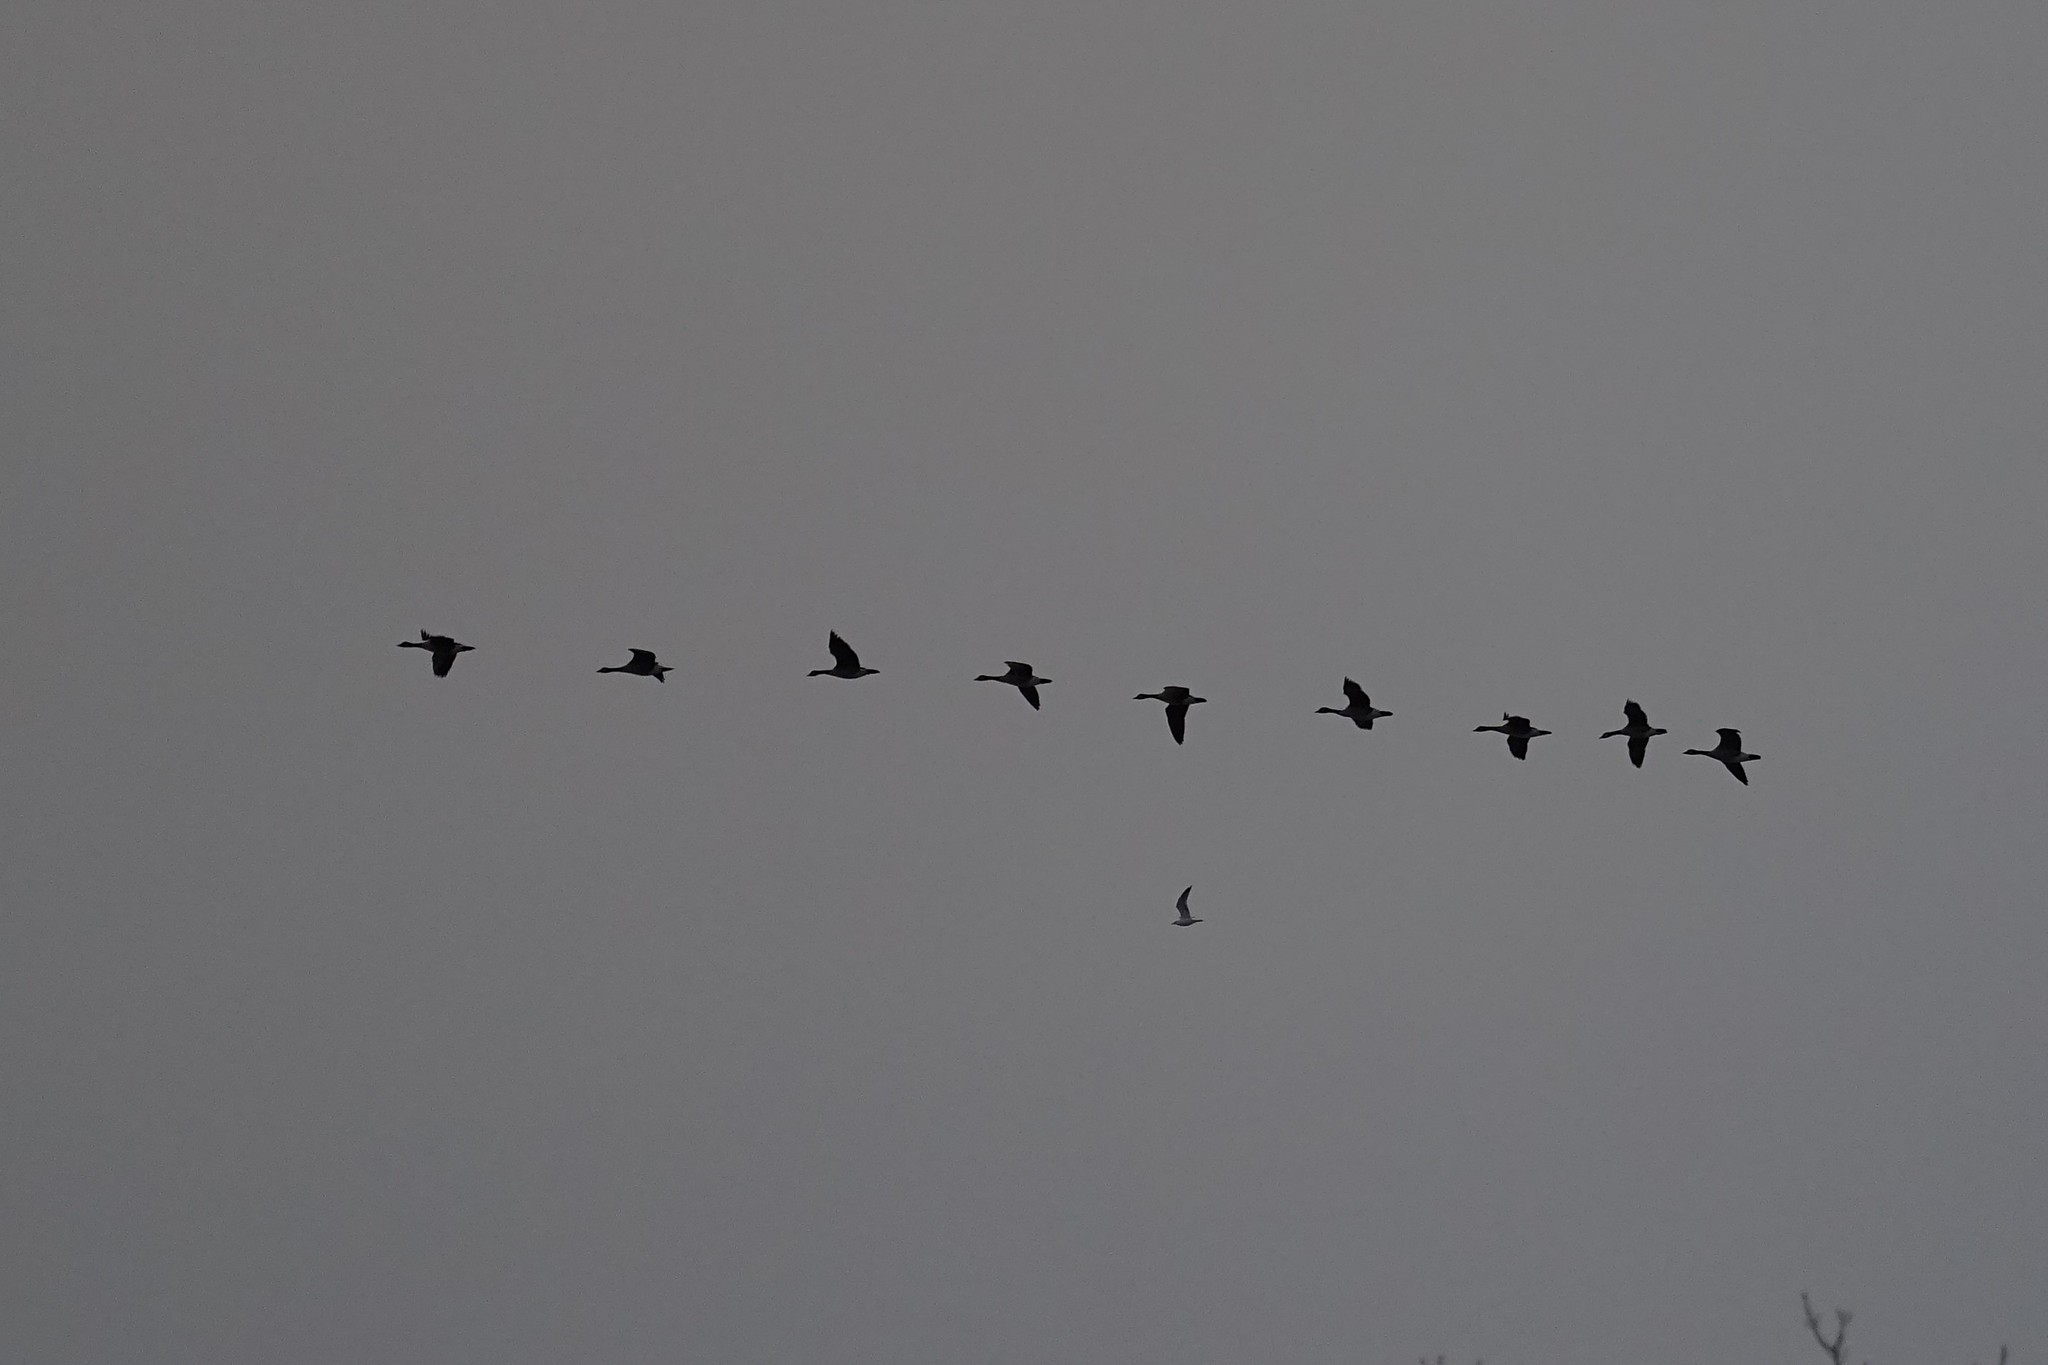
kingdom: Animalia
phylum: Chordata
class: Aves
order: Anseriformes
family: Anatidae
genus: Branta
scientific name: Branta canadensis
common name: Canada goose
